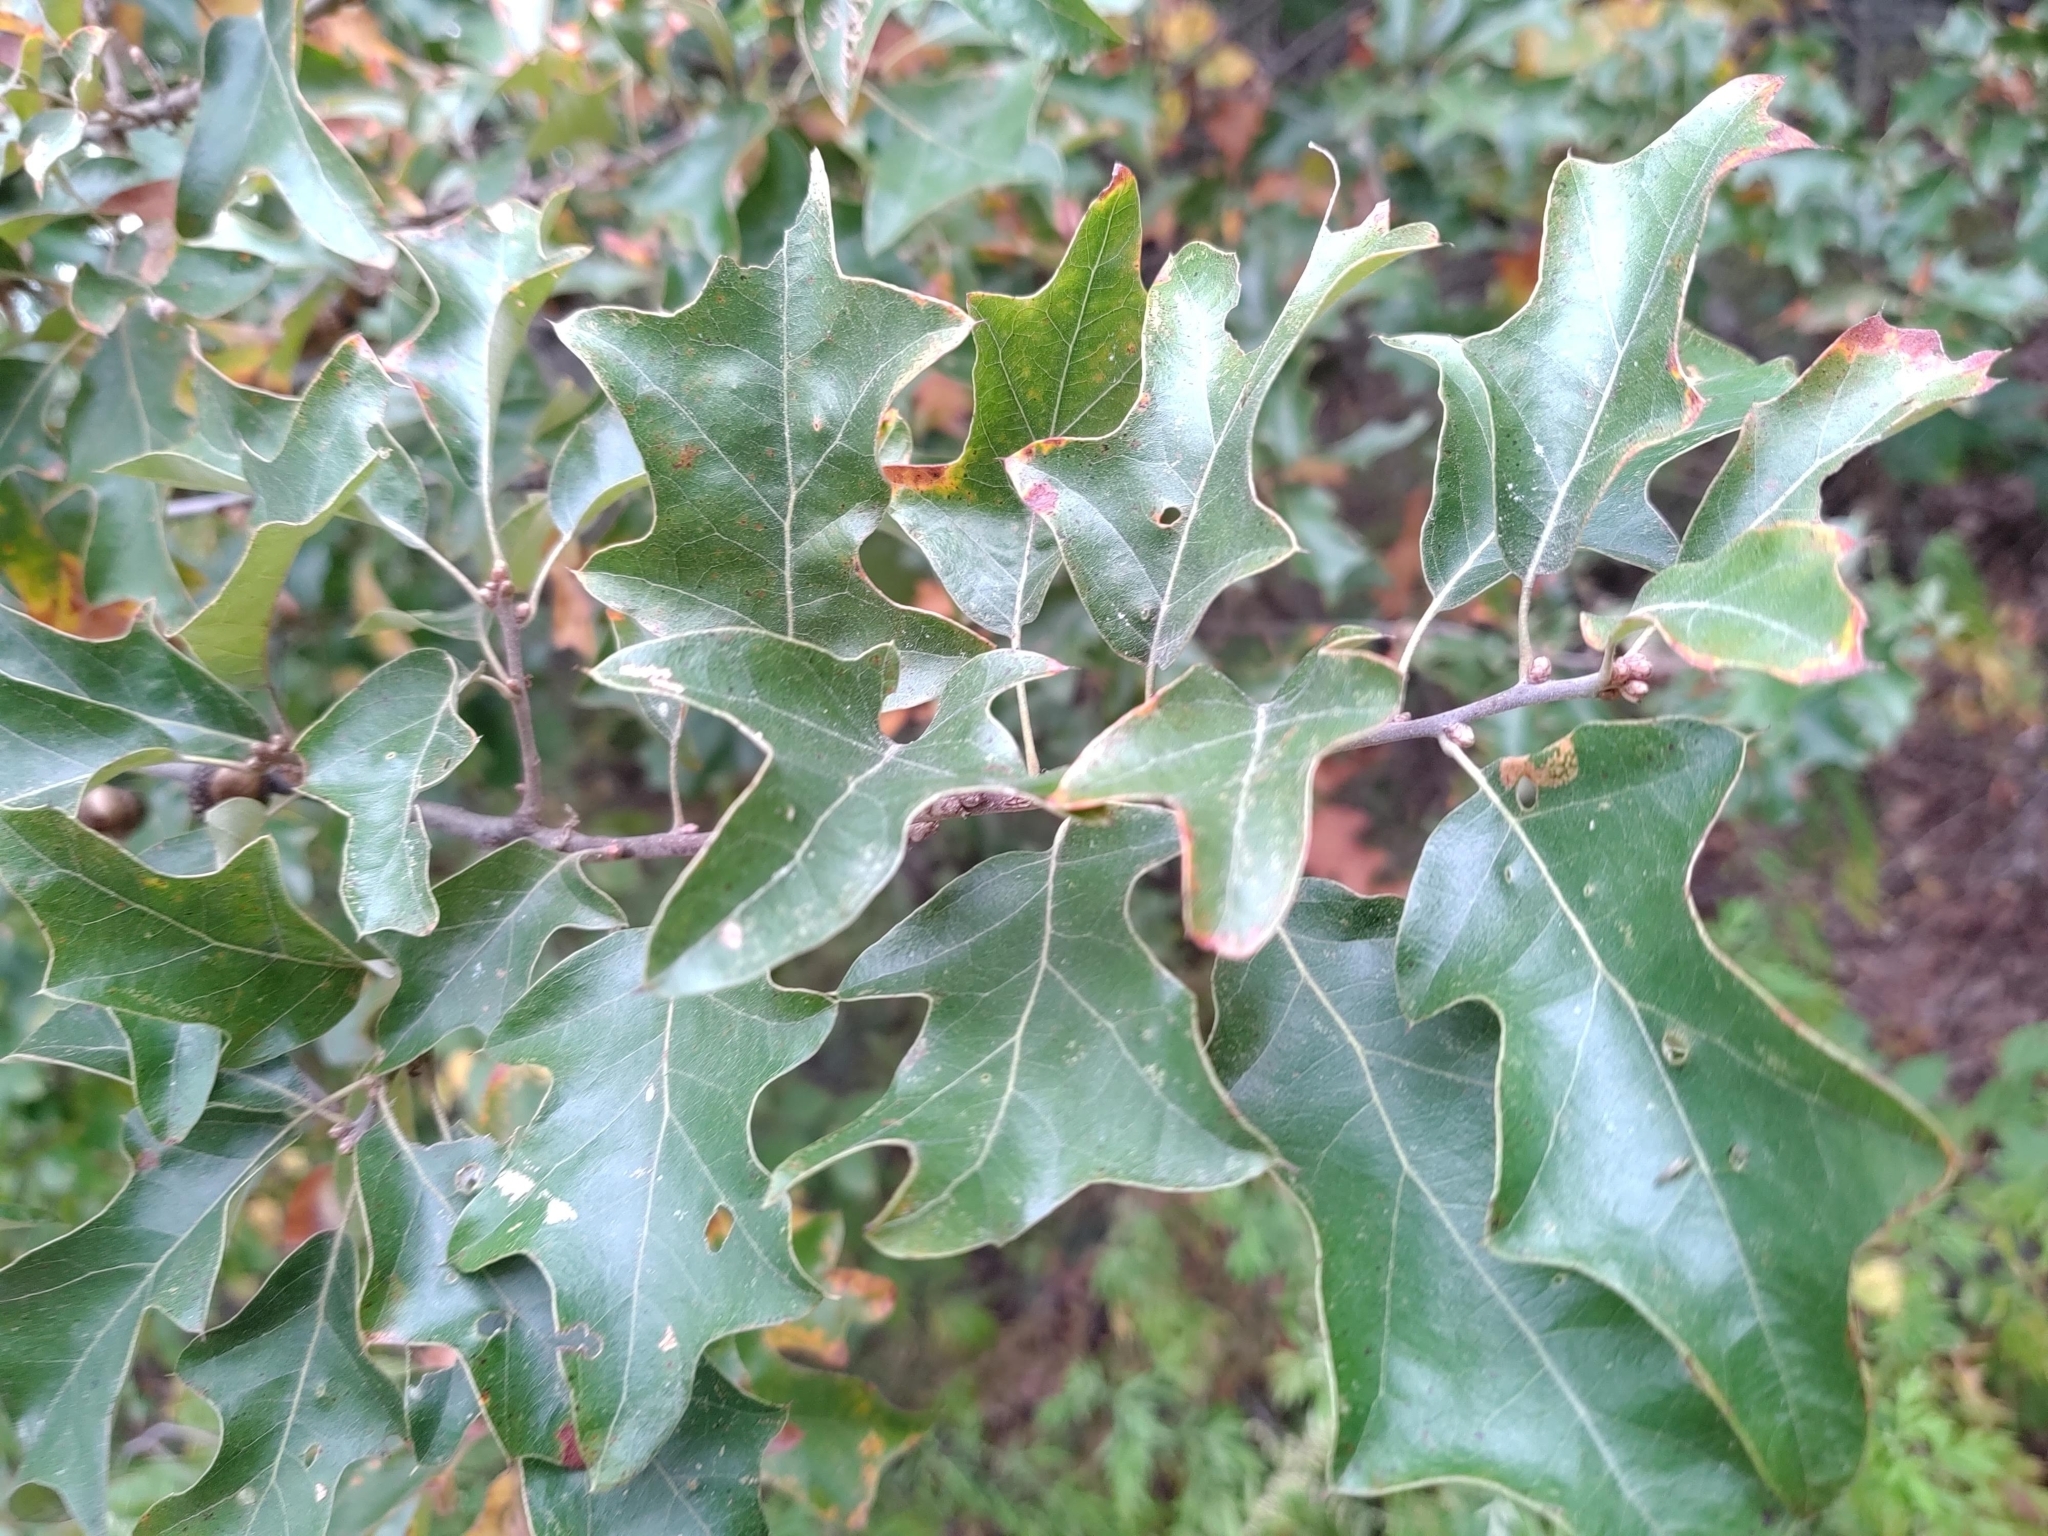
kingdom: Plantae
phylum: Tracheophyta
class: Magnoliopsida
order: Fagales
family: Fagaceae
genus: Quercus
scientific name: Quercus ilicifolia
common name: Bear oak
